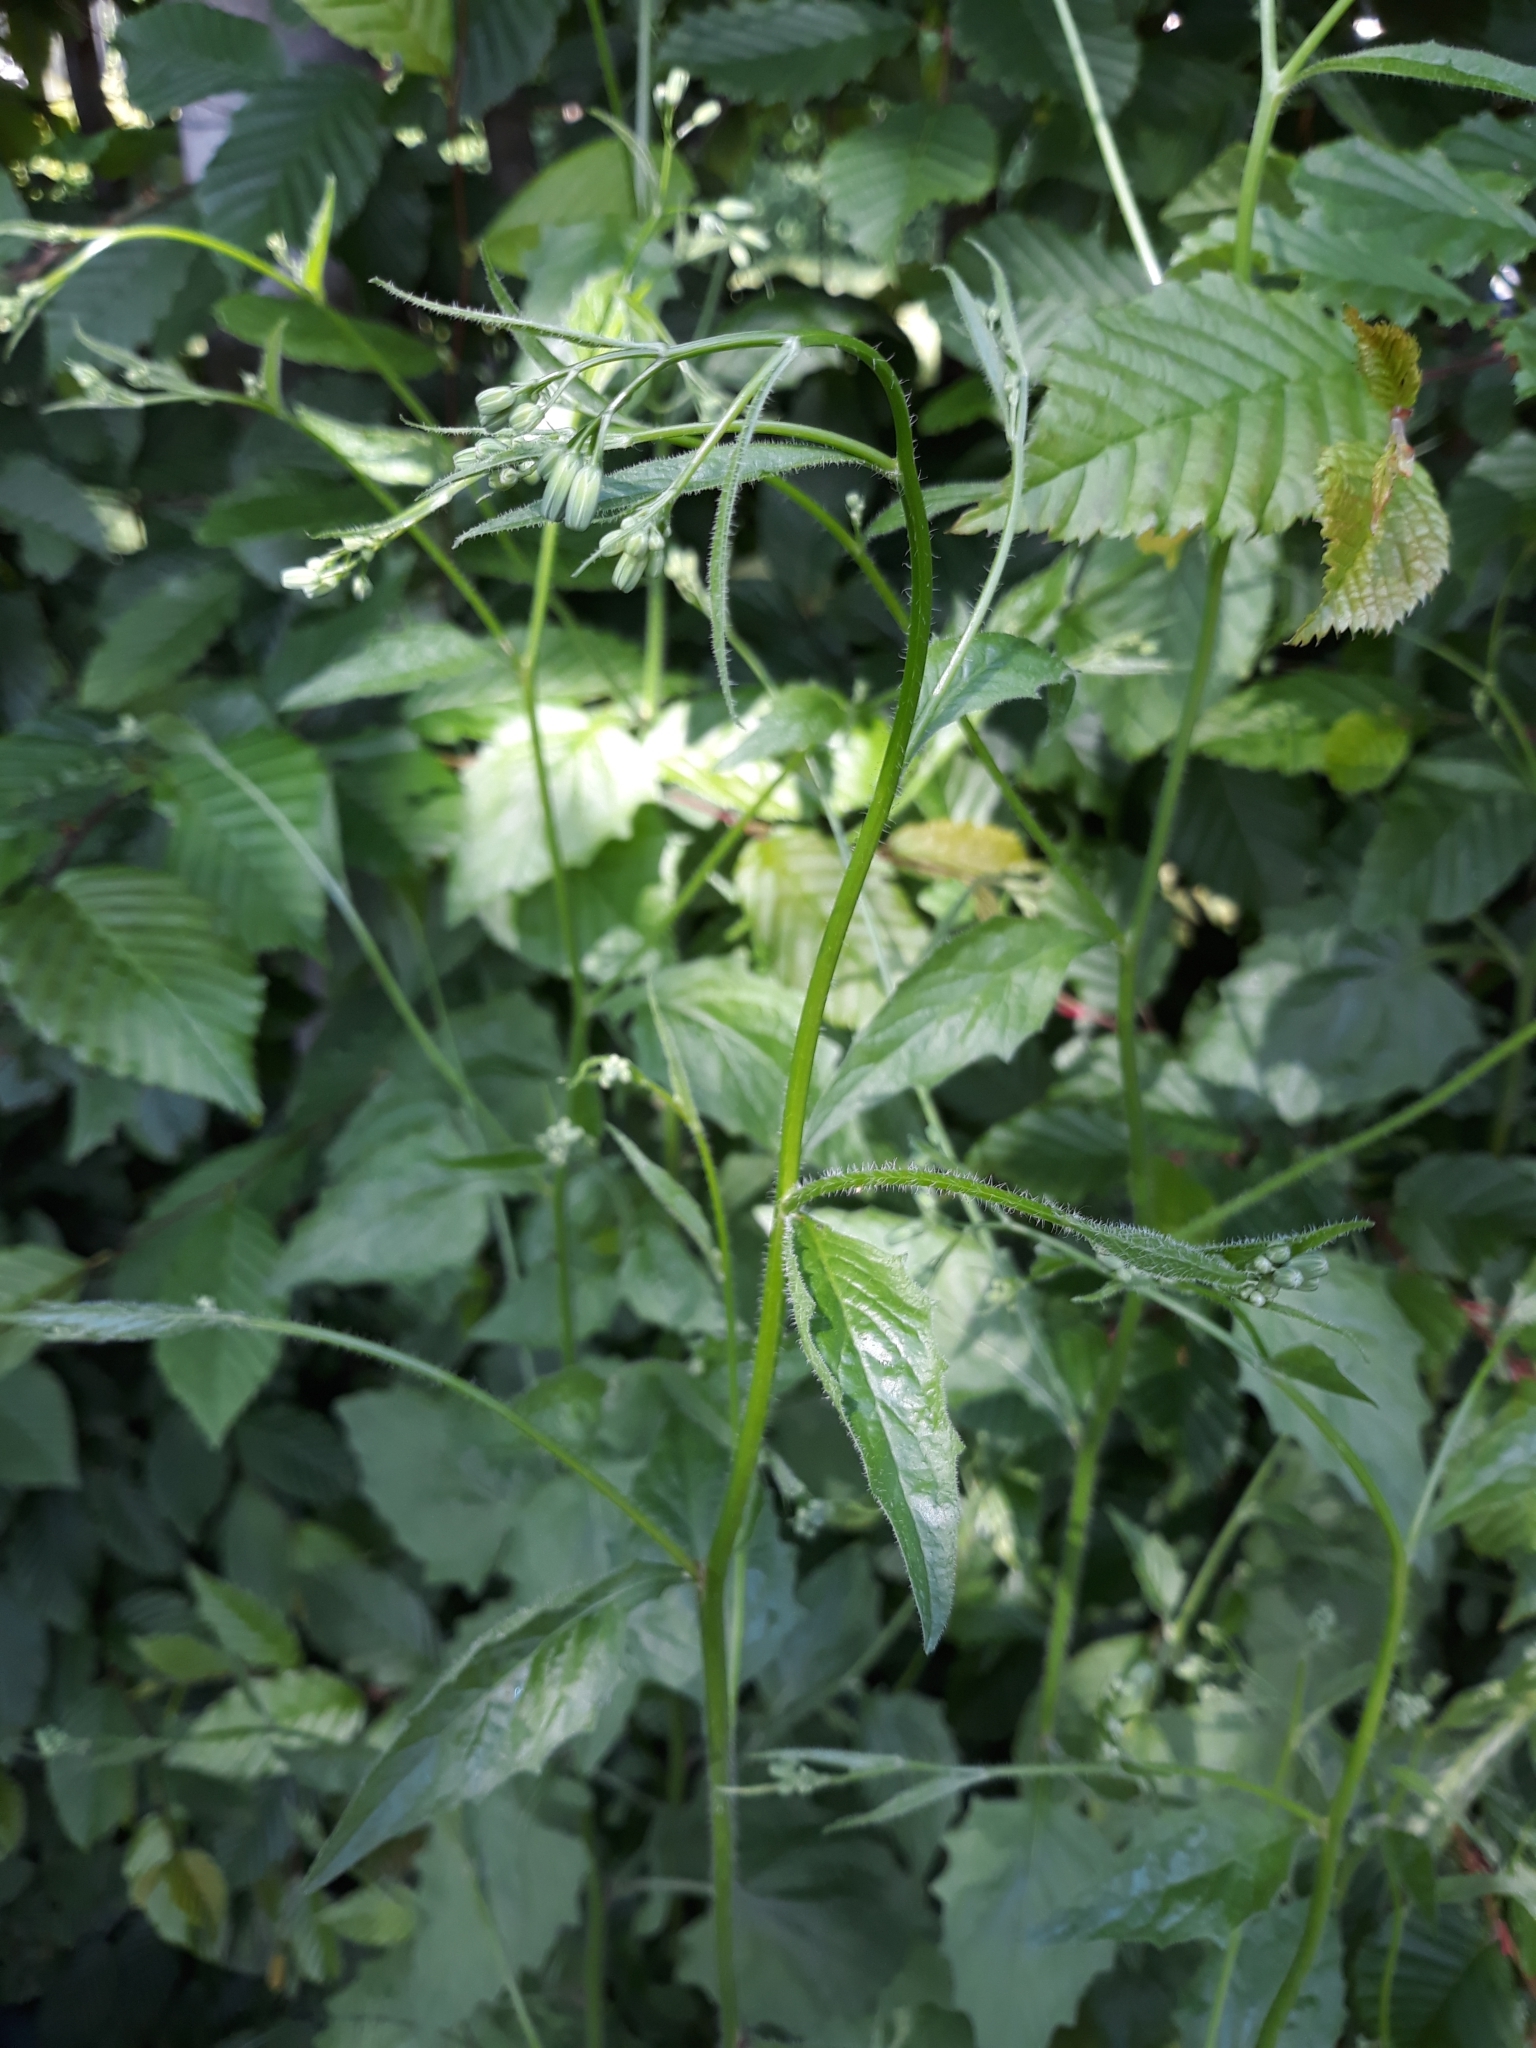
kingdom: Plantae
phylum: Tracheophyta
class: Magnoliopsida
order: Asterales
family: Asteraceae
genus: Lapsana
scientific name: Lapsana communis
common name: Nipplewort
